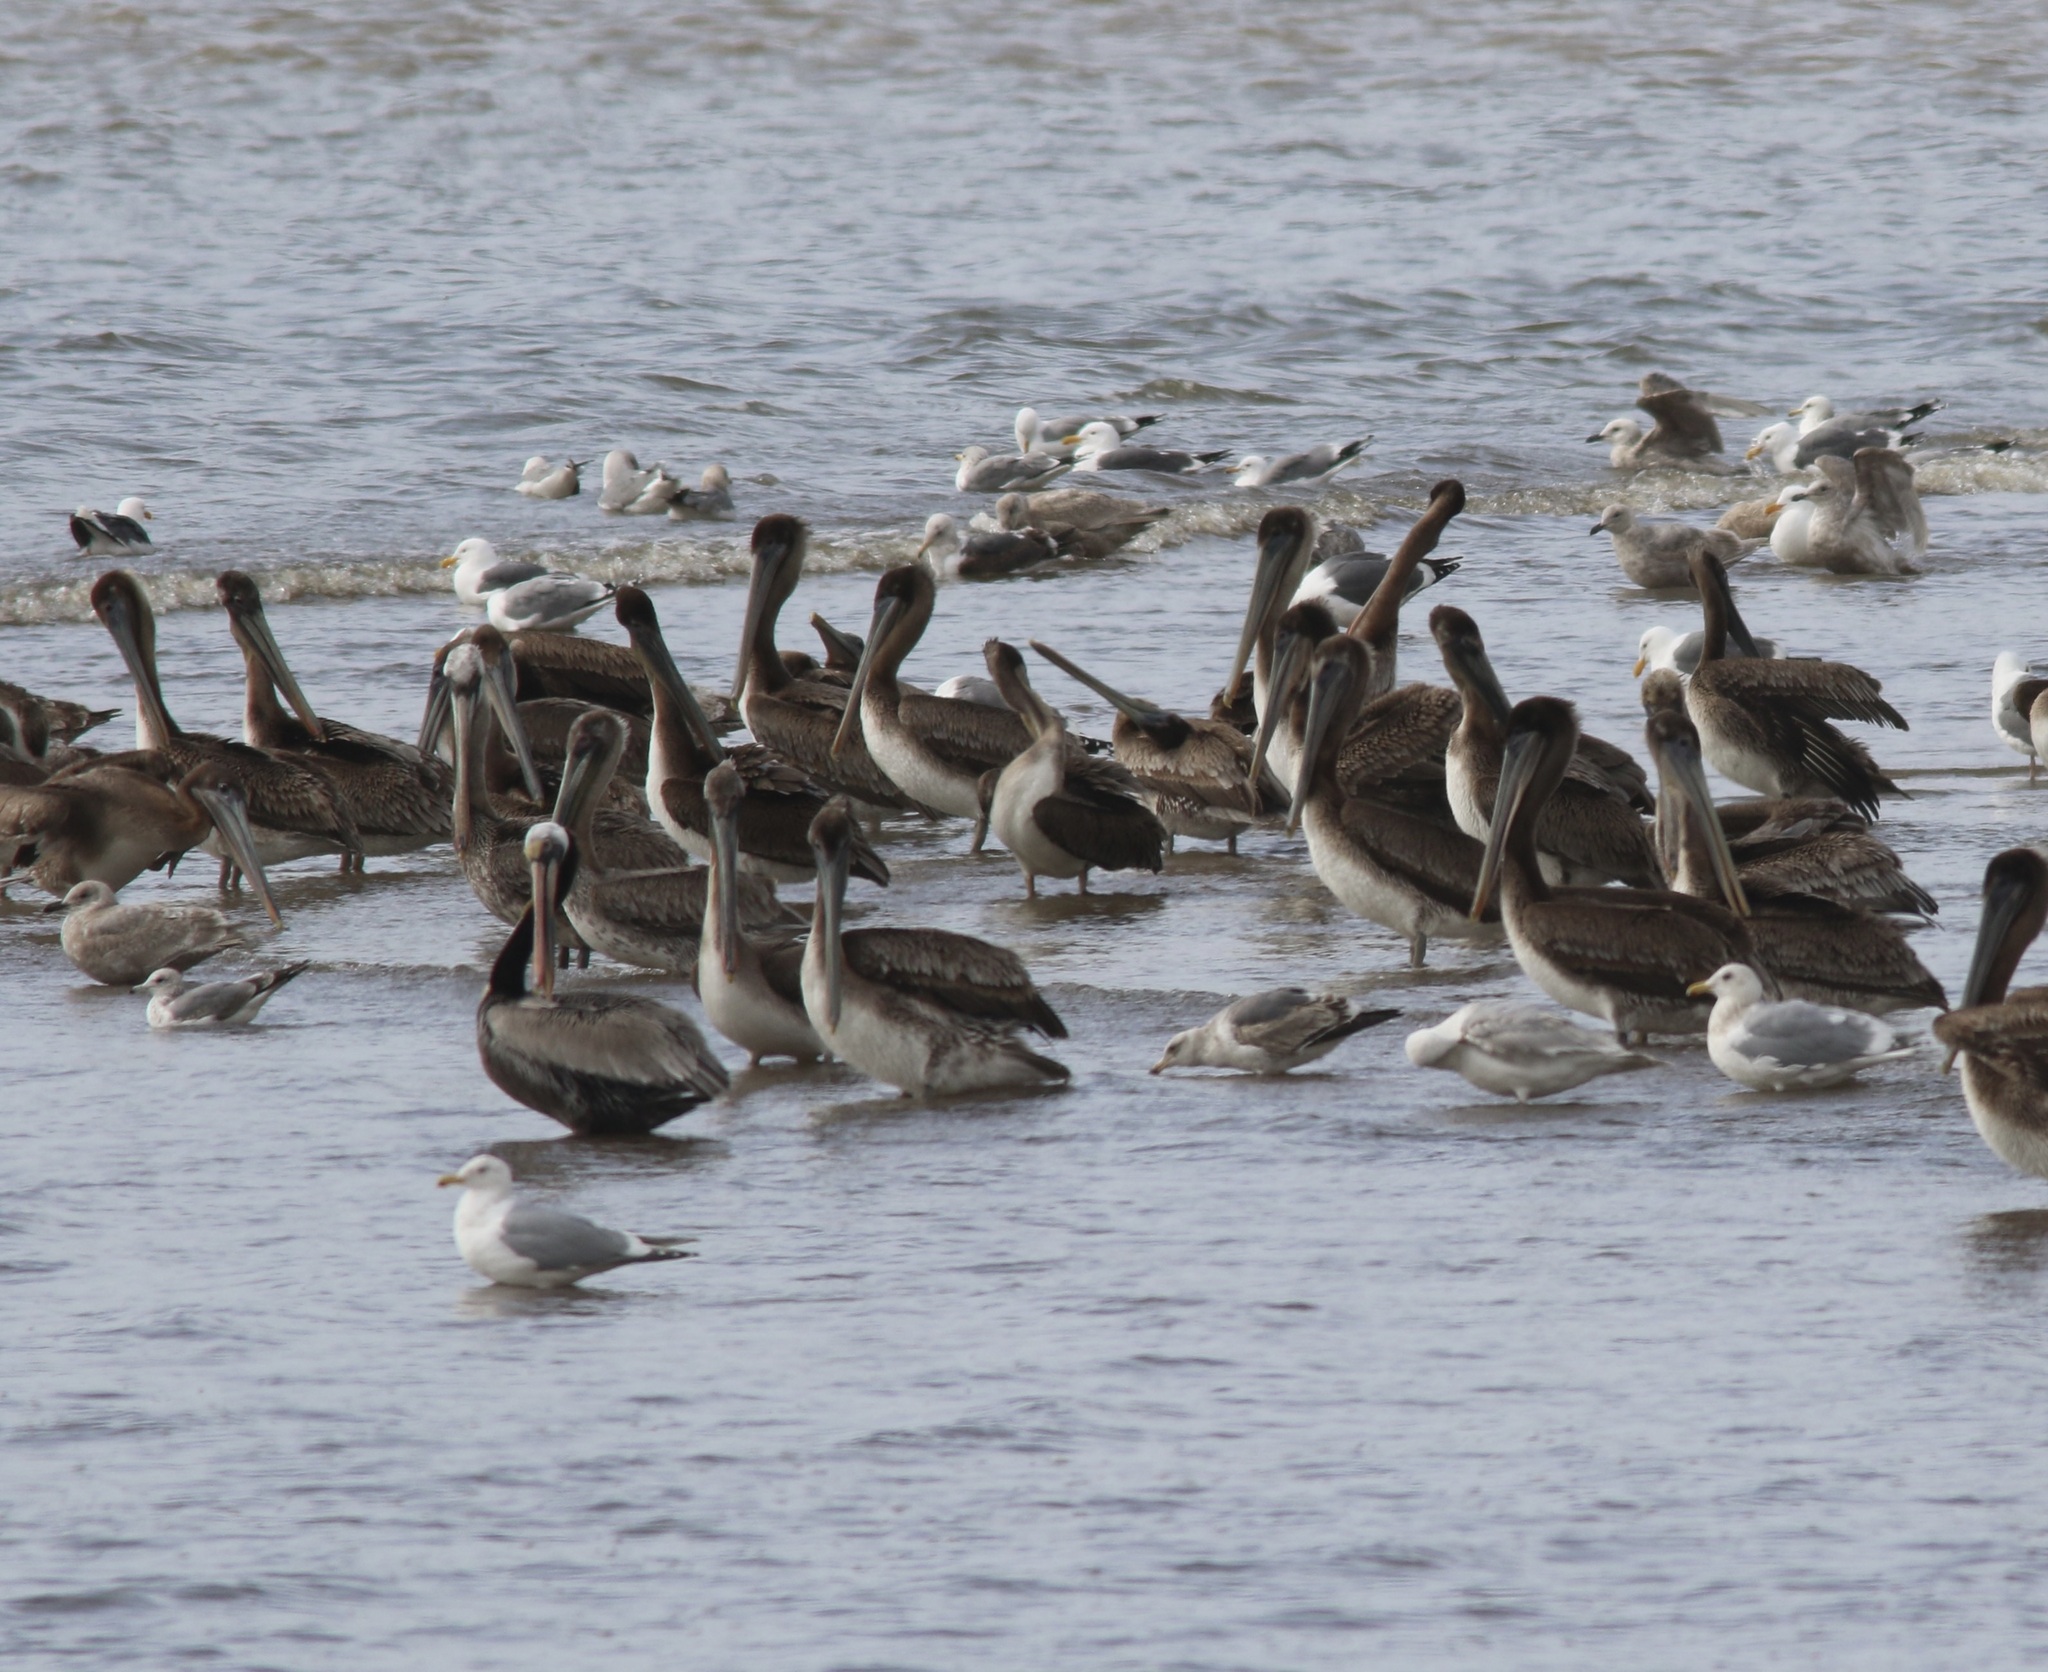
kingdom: Animalia
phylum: Chordata
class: Aves
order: Pelecaniformes
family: Pelecanidae
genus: Pelecanus
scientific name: Pelecanus occidentalis
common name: Brown pelican
